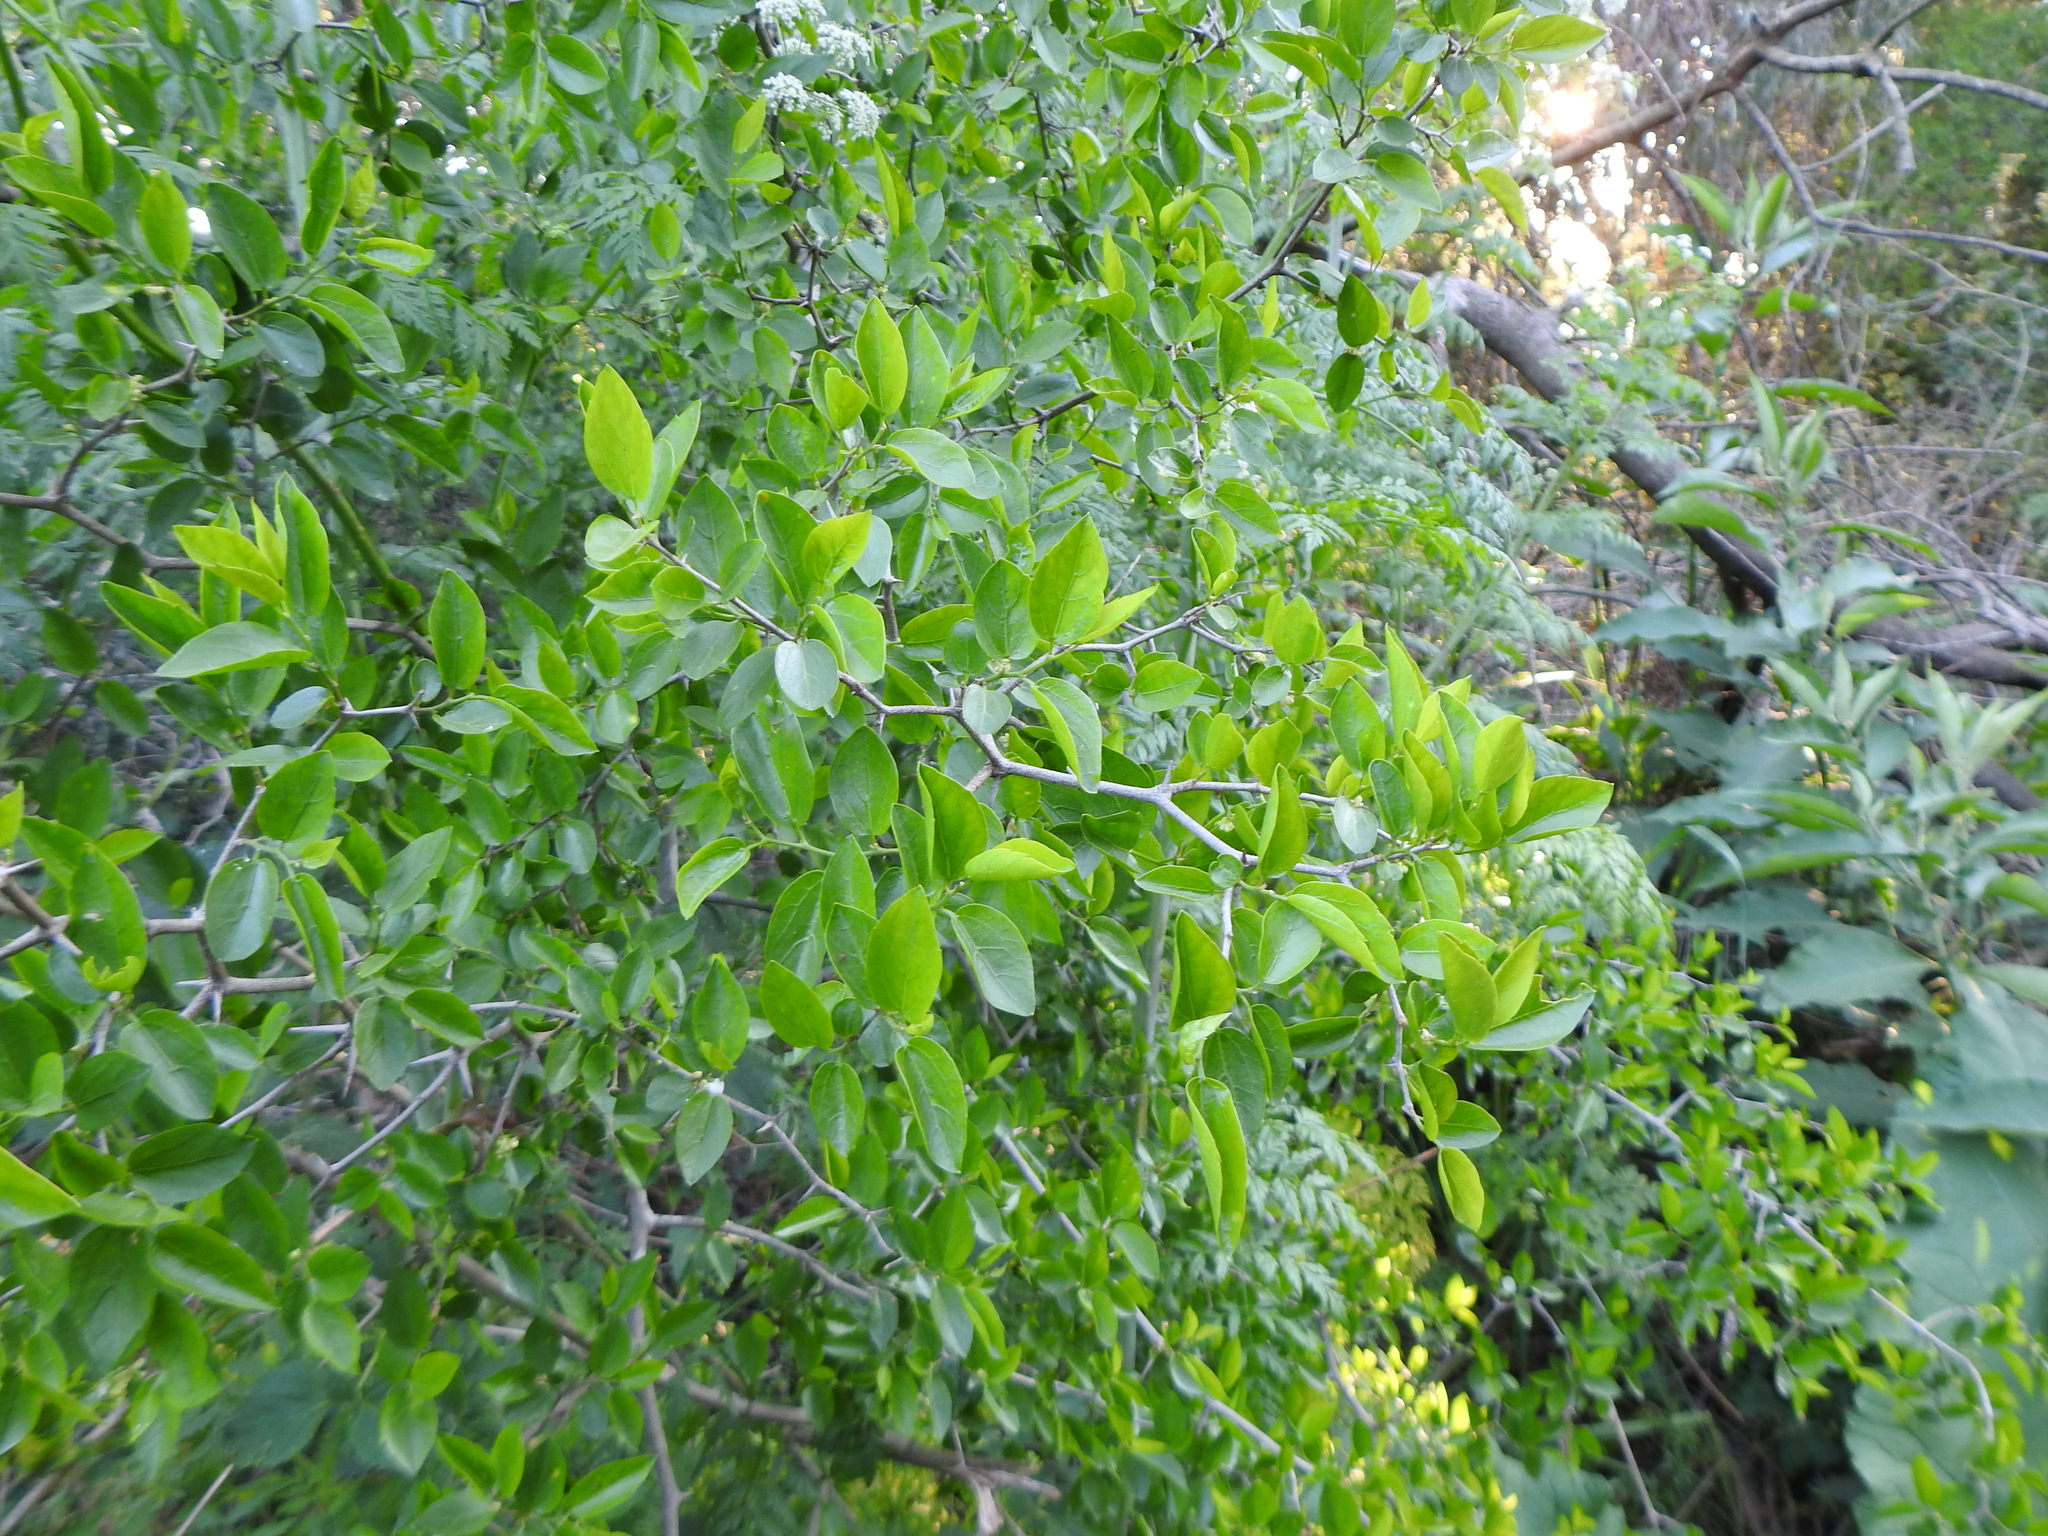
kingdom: Plantae
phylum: Tracheophyta
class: Magnoliopsida
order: Rosales
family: Cannabaceae
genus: Celtis
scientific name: Celtis tala
